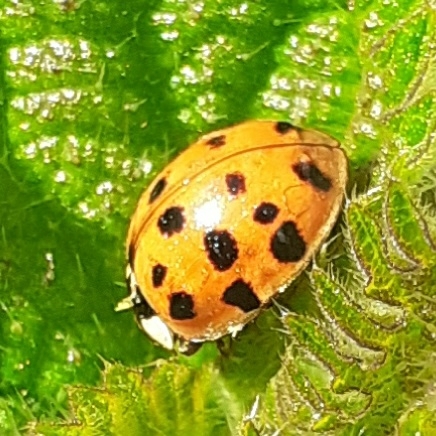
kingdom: Animalia
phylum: Arthropoda
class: Insecta
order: Coleoptera
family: Coccinellidae
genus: Harmonia
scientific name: Harmonia axyridis
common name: Harlequin ladybird
